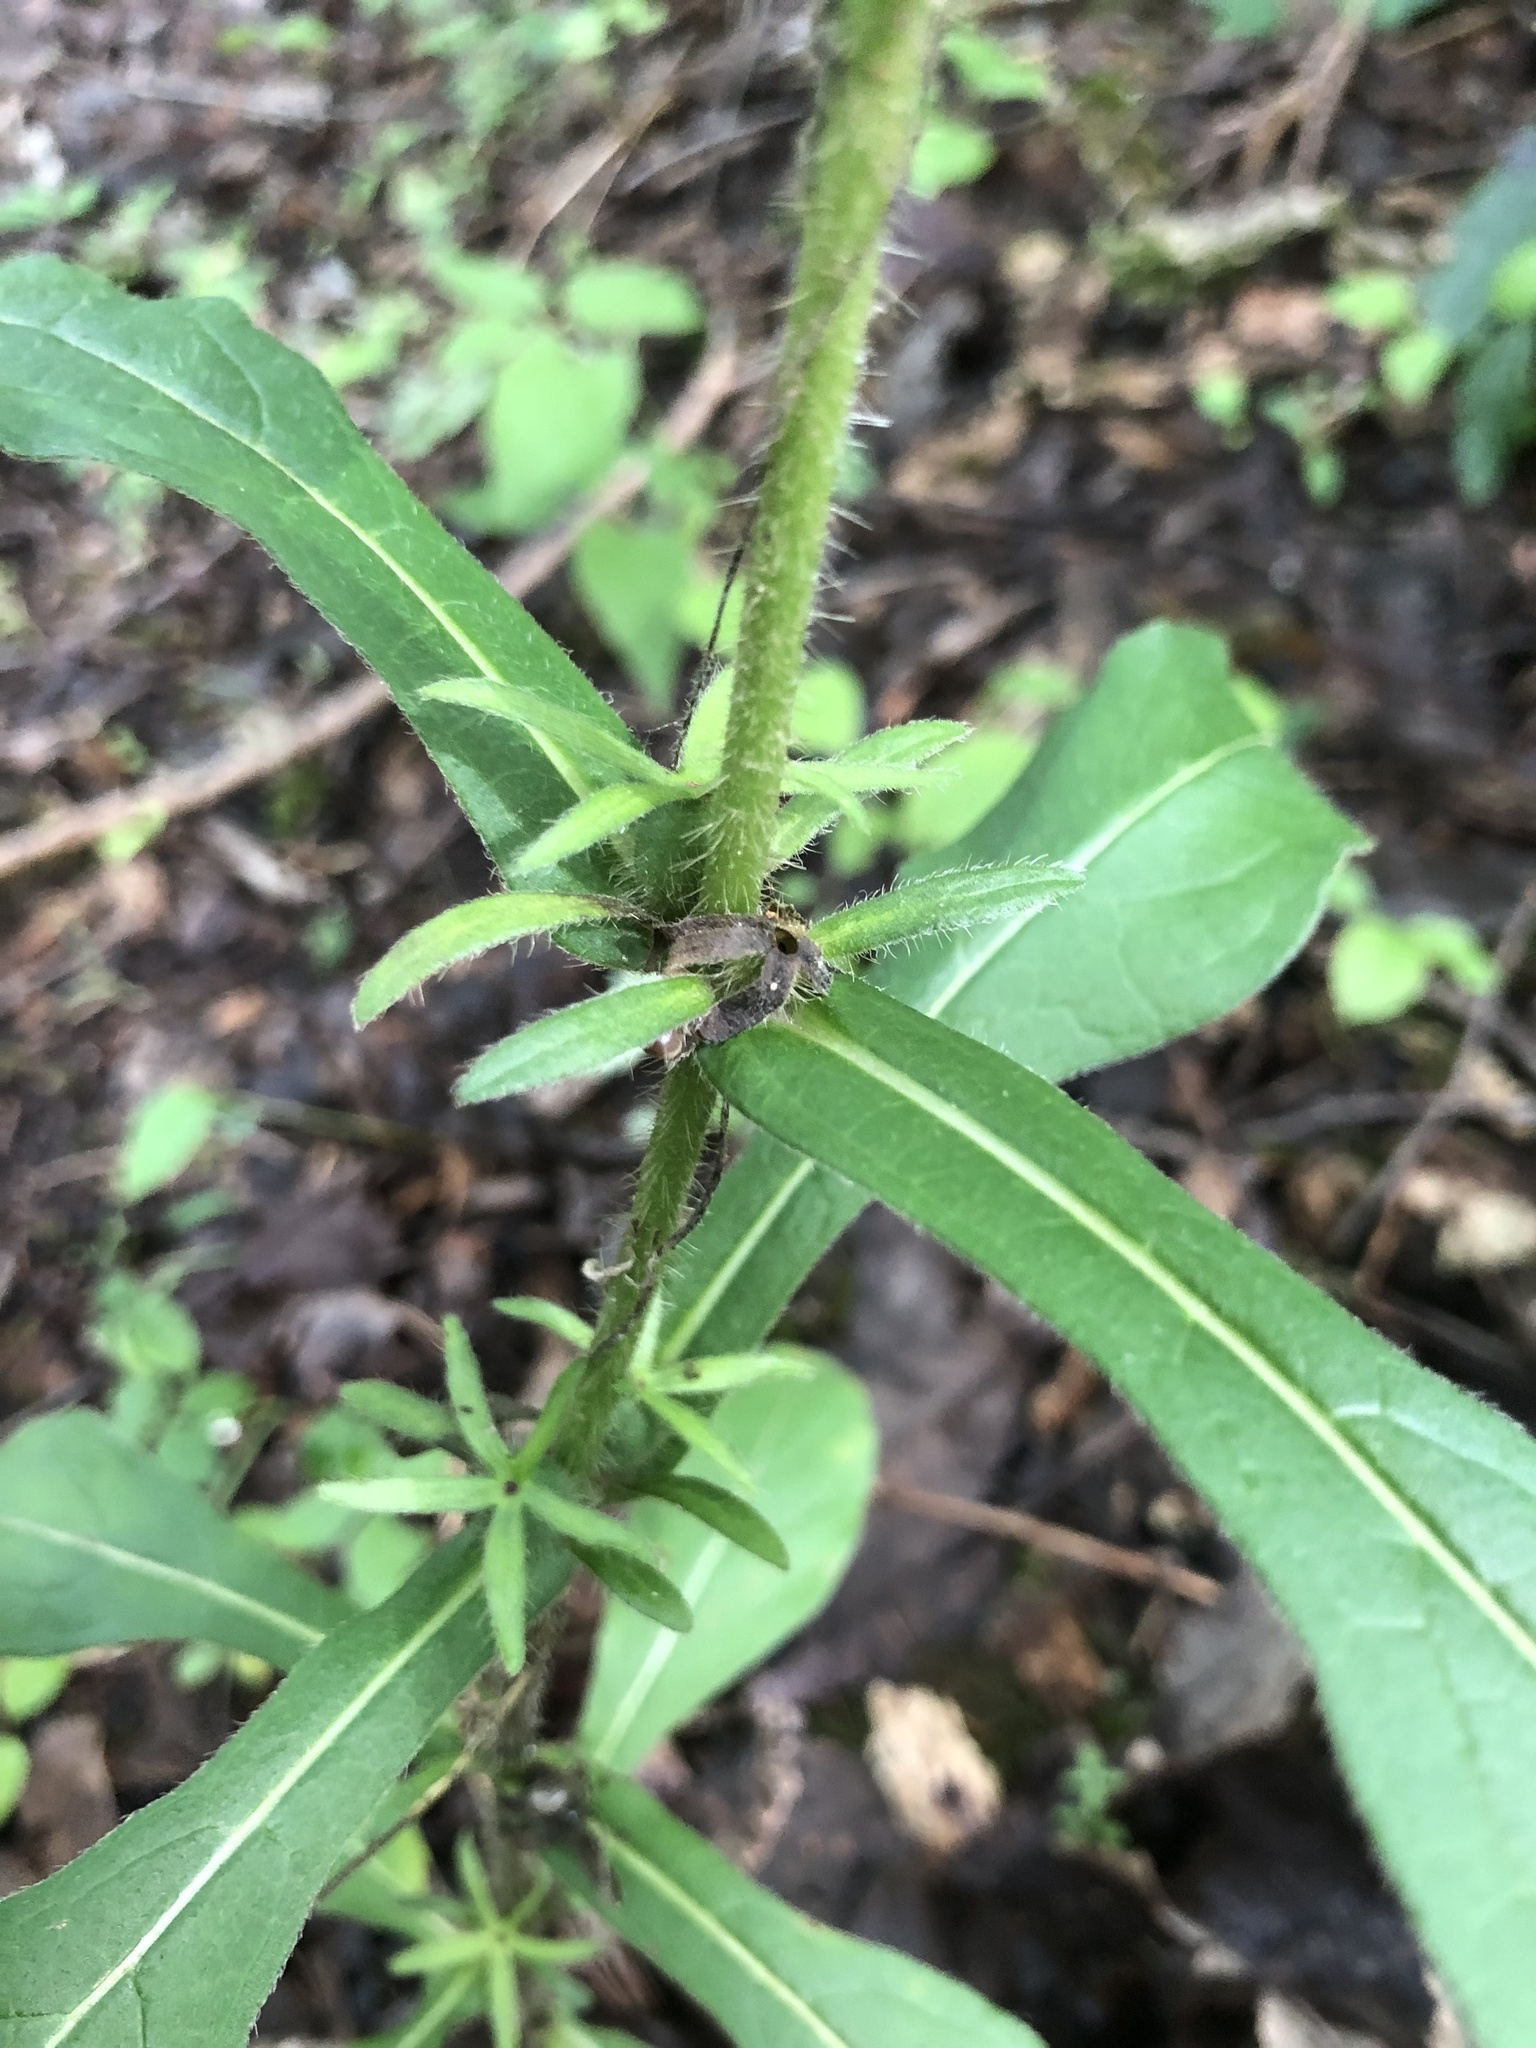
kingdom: Plantae
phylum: Tracheophyta
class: Magnoliopsida
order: Dipsacales
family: Caprifoliaceae
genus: Triosteum
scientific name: Triosteum angustifolium
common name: Narrow-leaved horse-gentian
